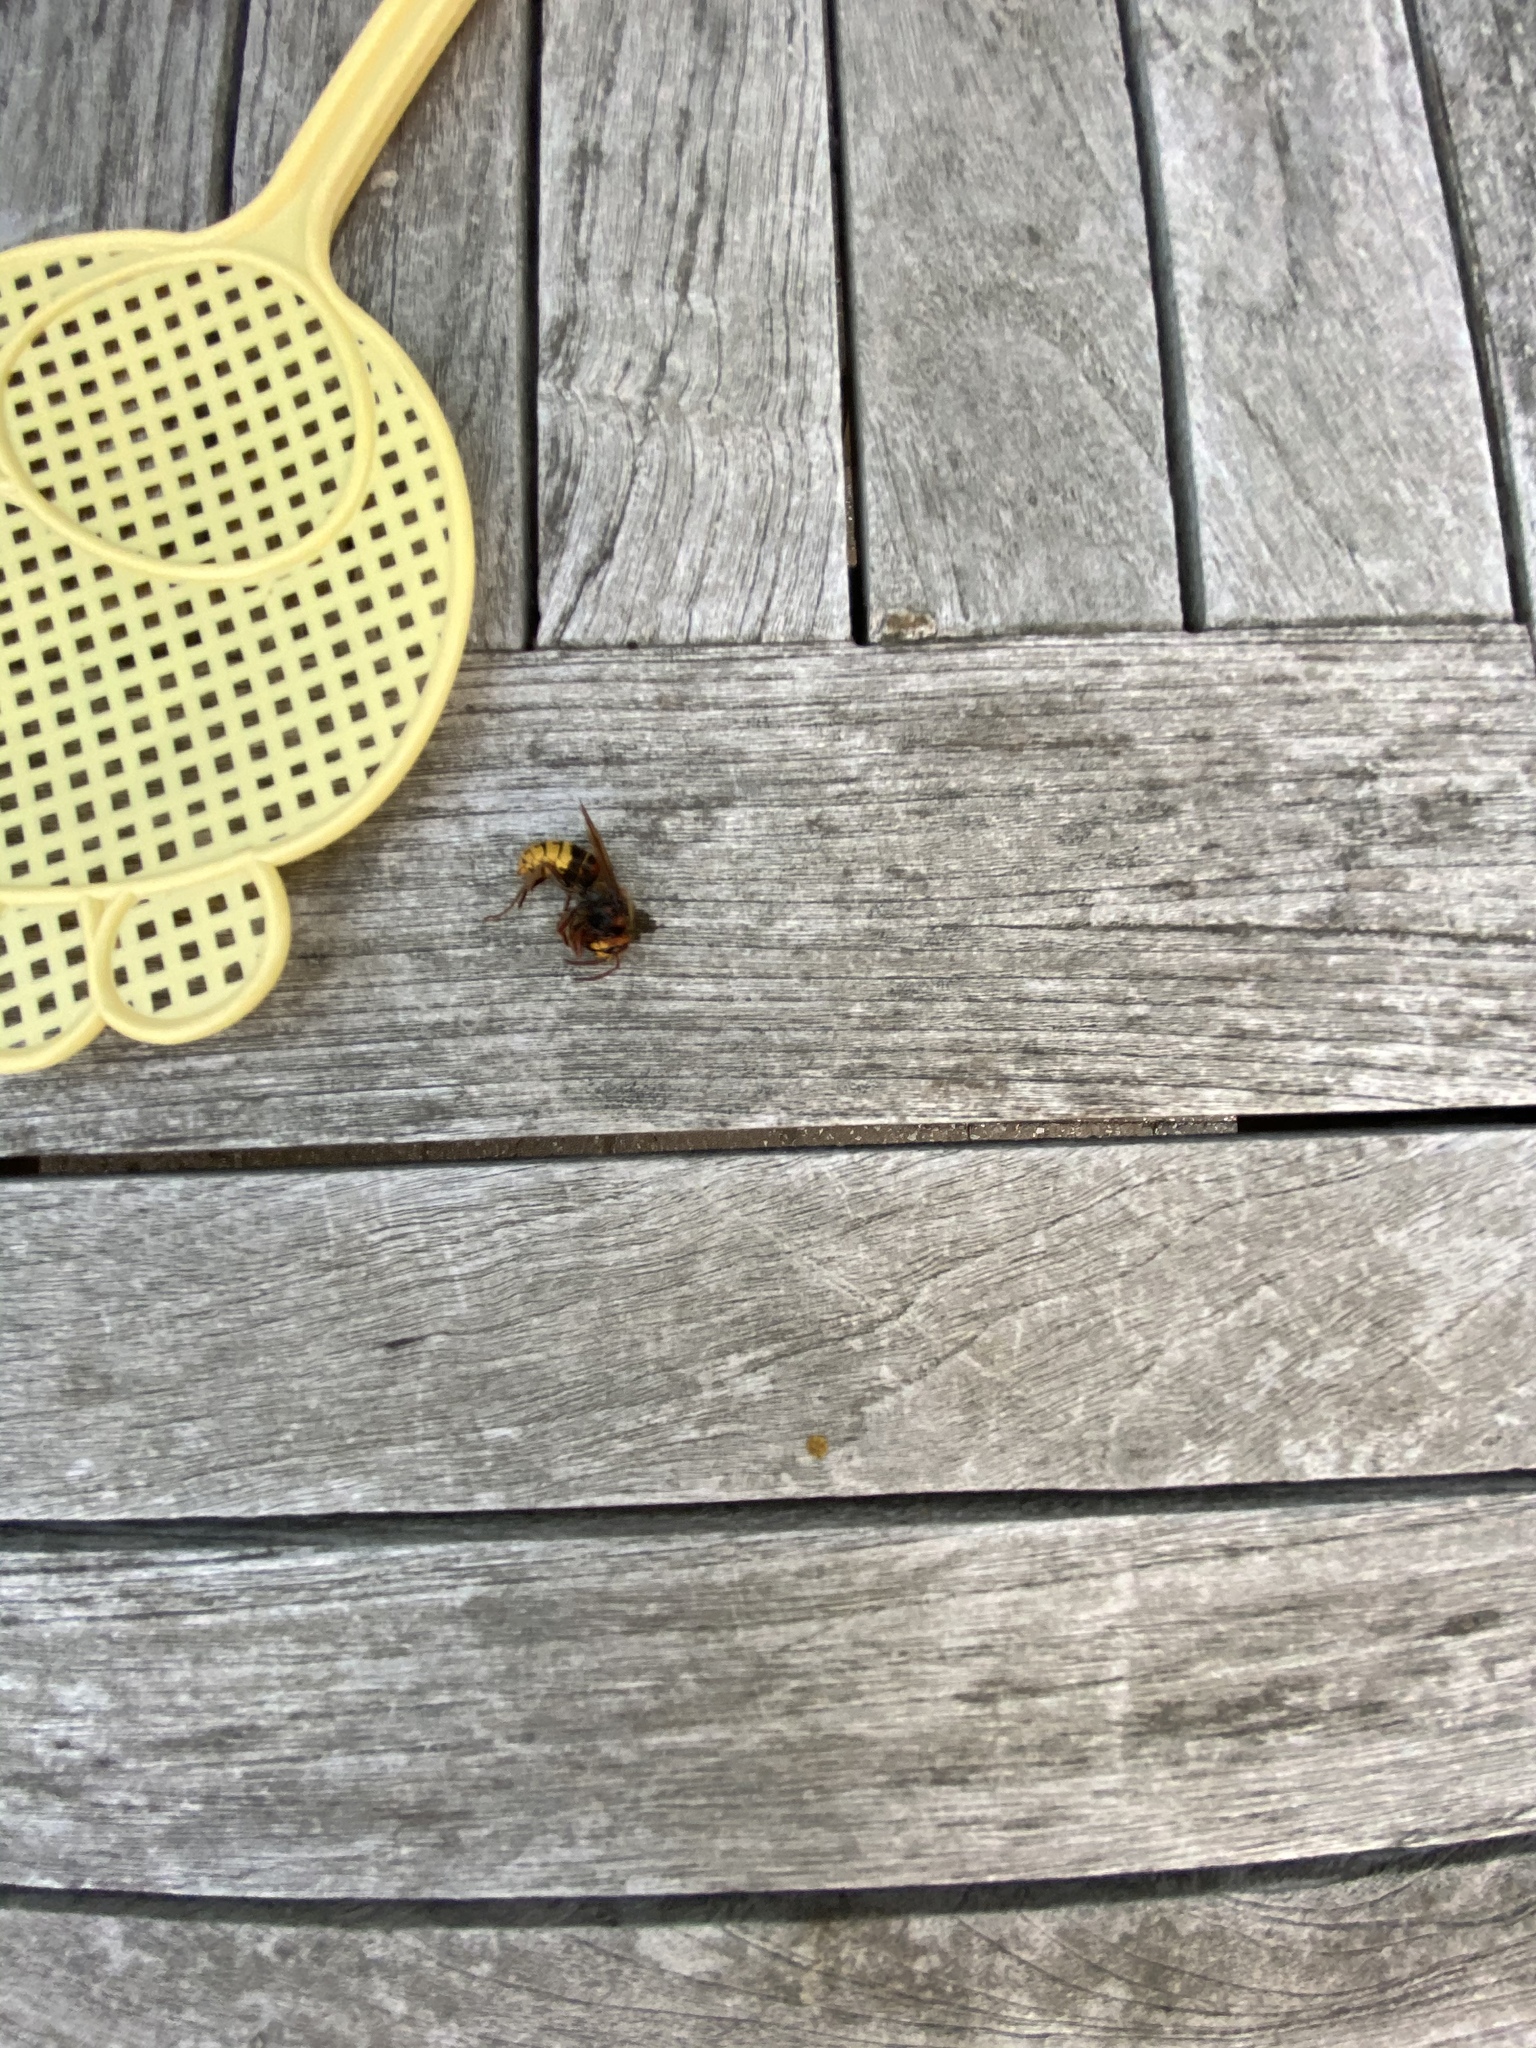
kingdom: Animalia
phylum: Arthropoda
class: Insecta
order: Hymenoptera
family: Vespidae
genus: Vespa
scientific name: Vespa crabro
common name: Hornet
